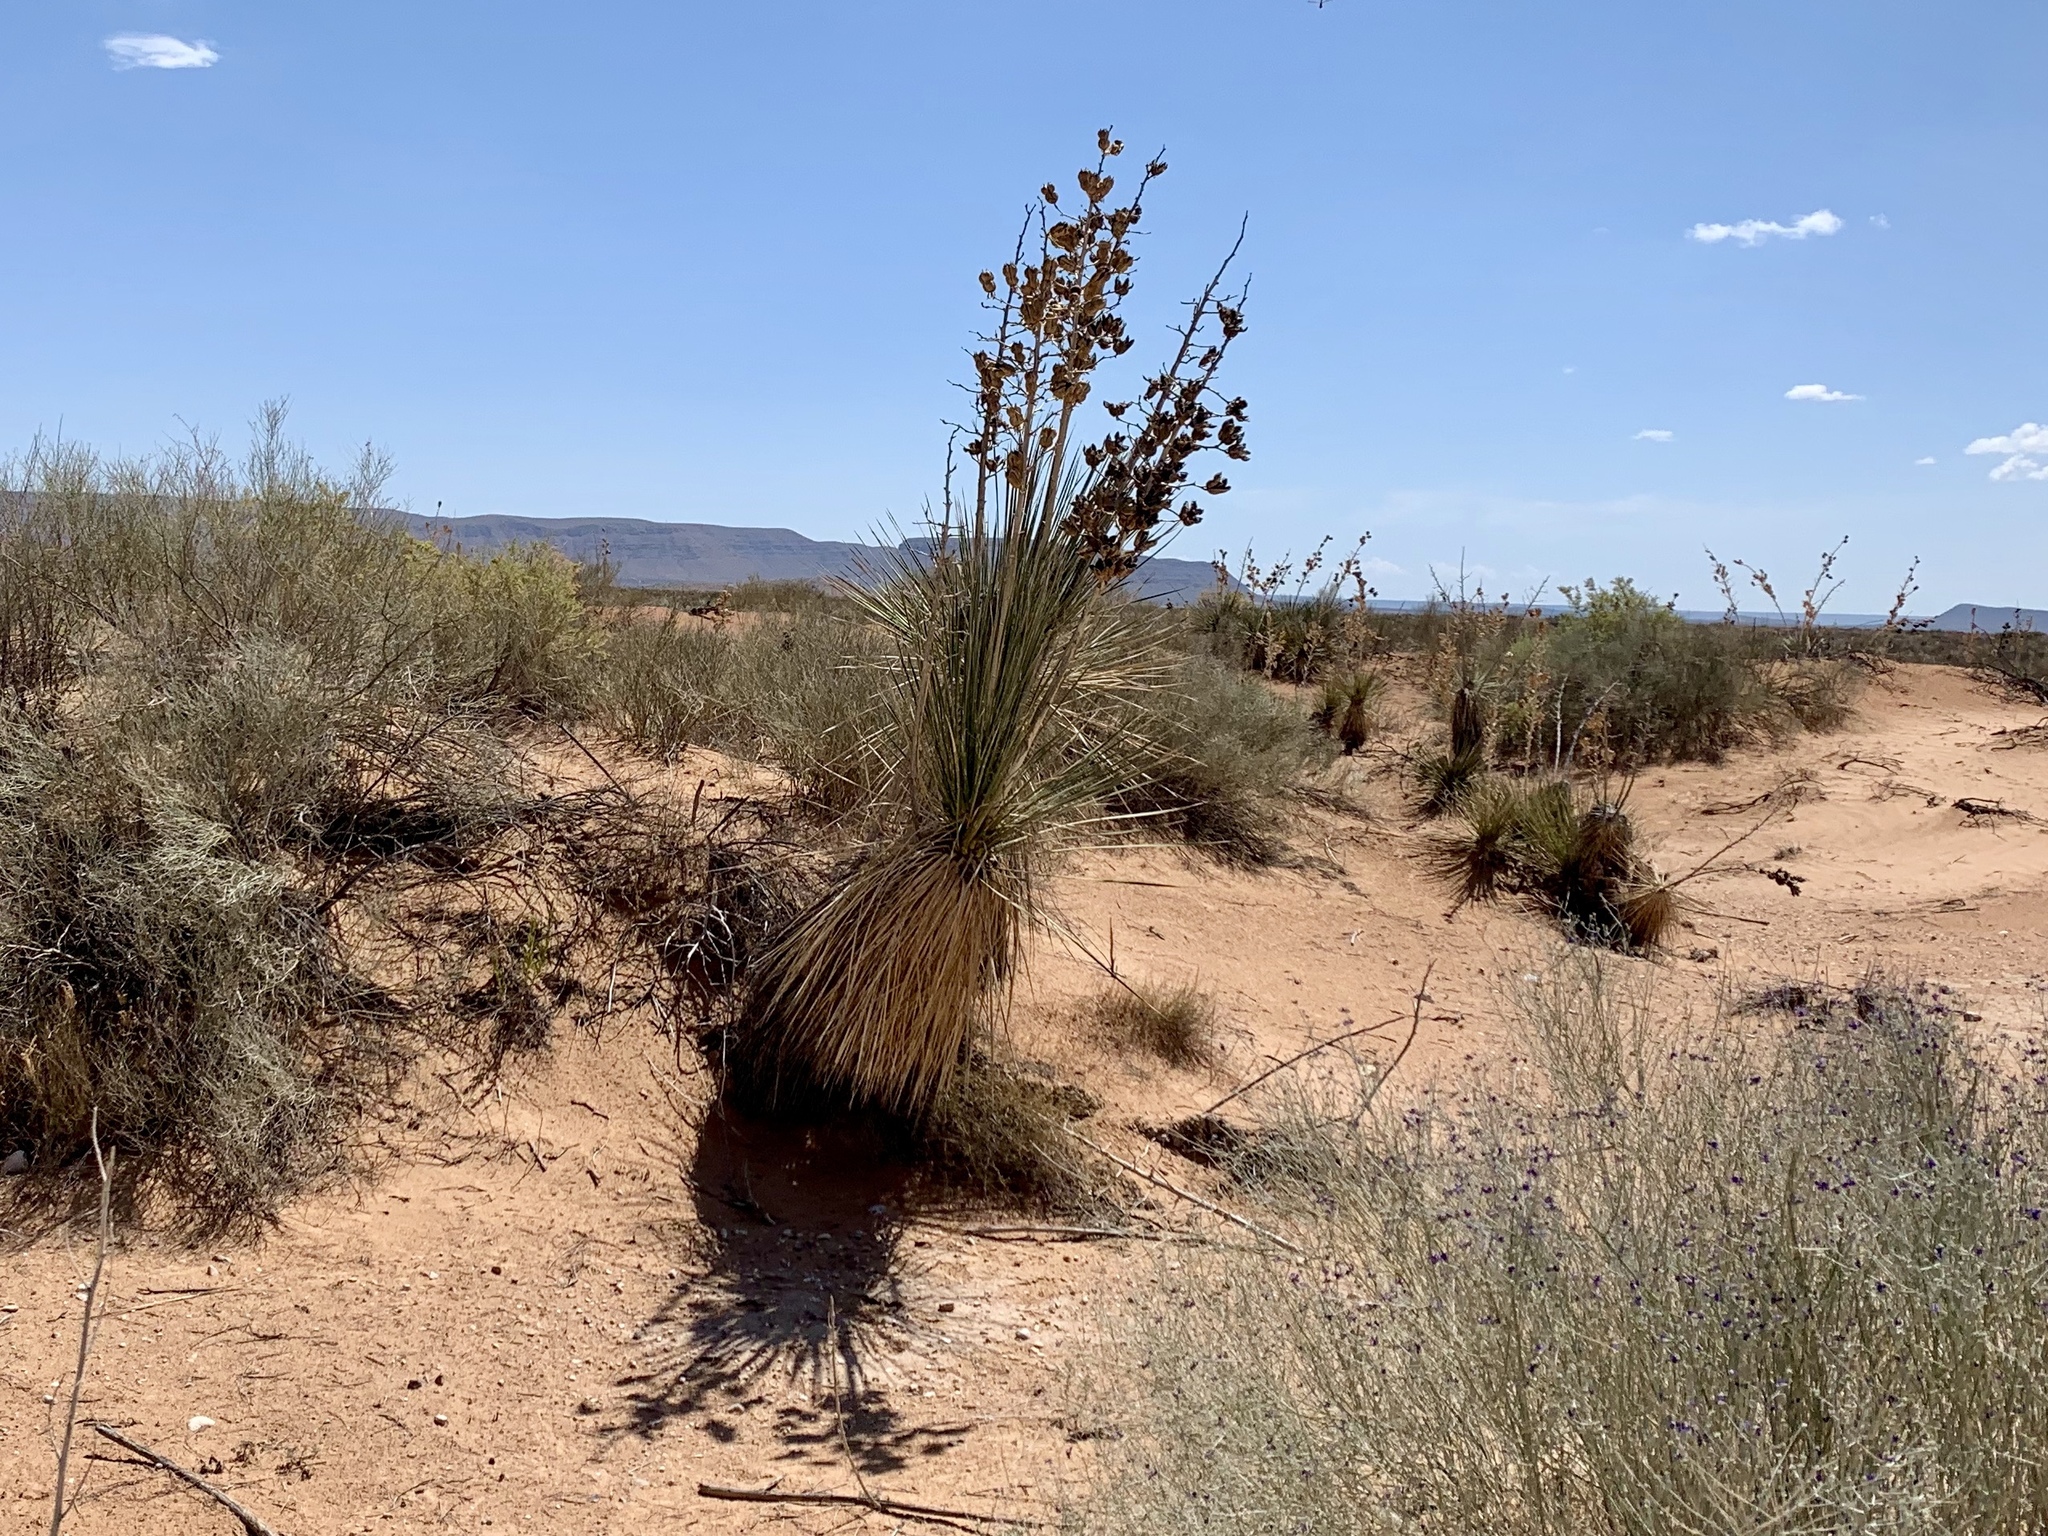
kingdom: Plantae
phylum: Tracheophyta
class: Liliopsida
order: Asparagales
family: Asparagaceae
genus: Yucca
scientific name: Yucca elata
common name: Palmella
